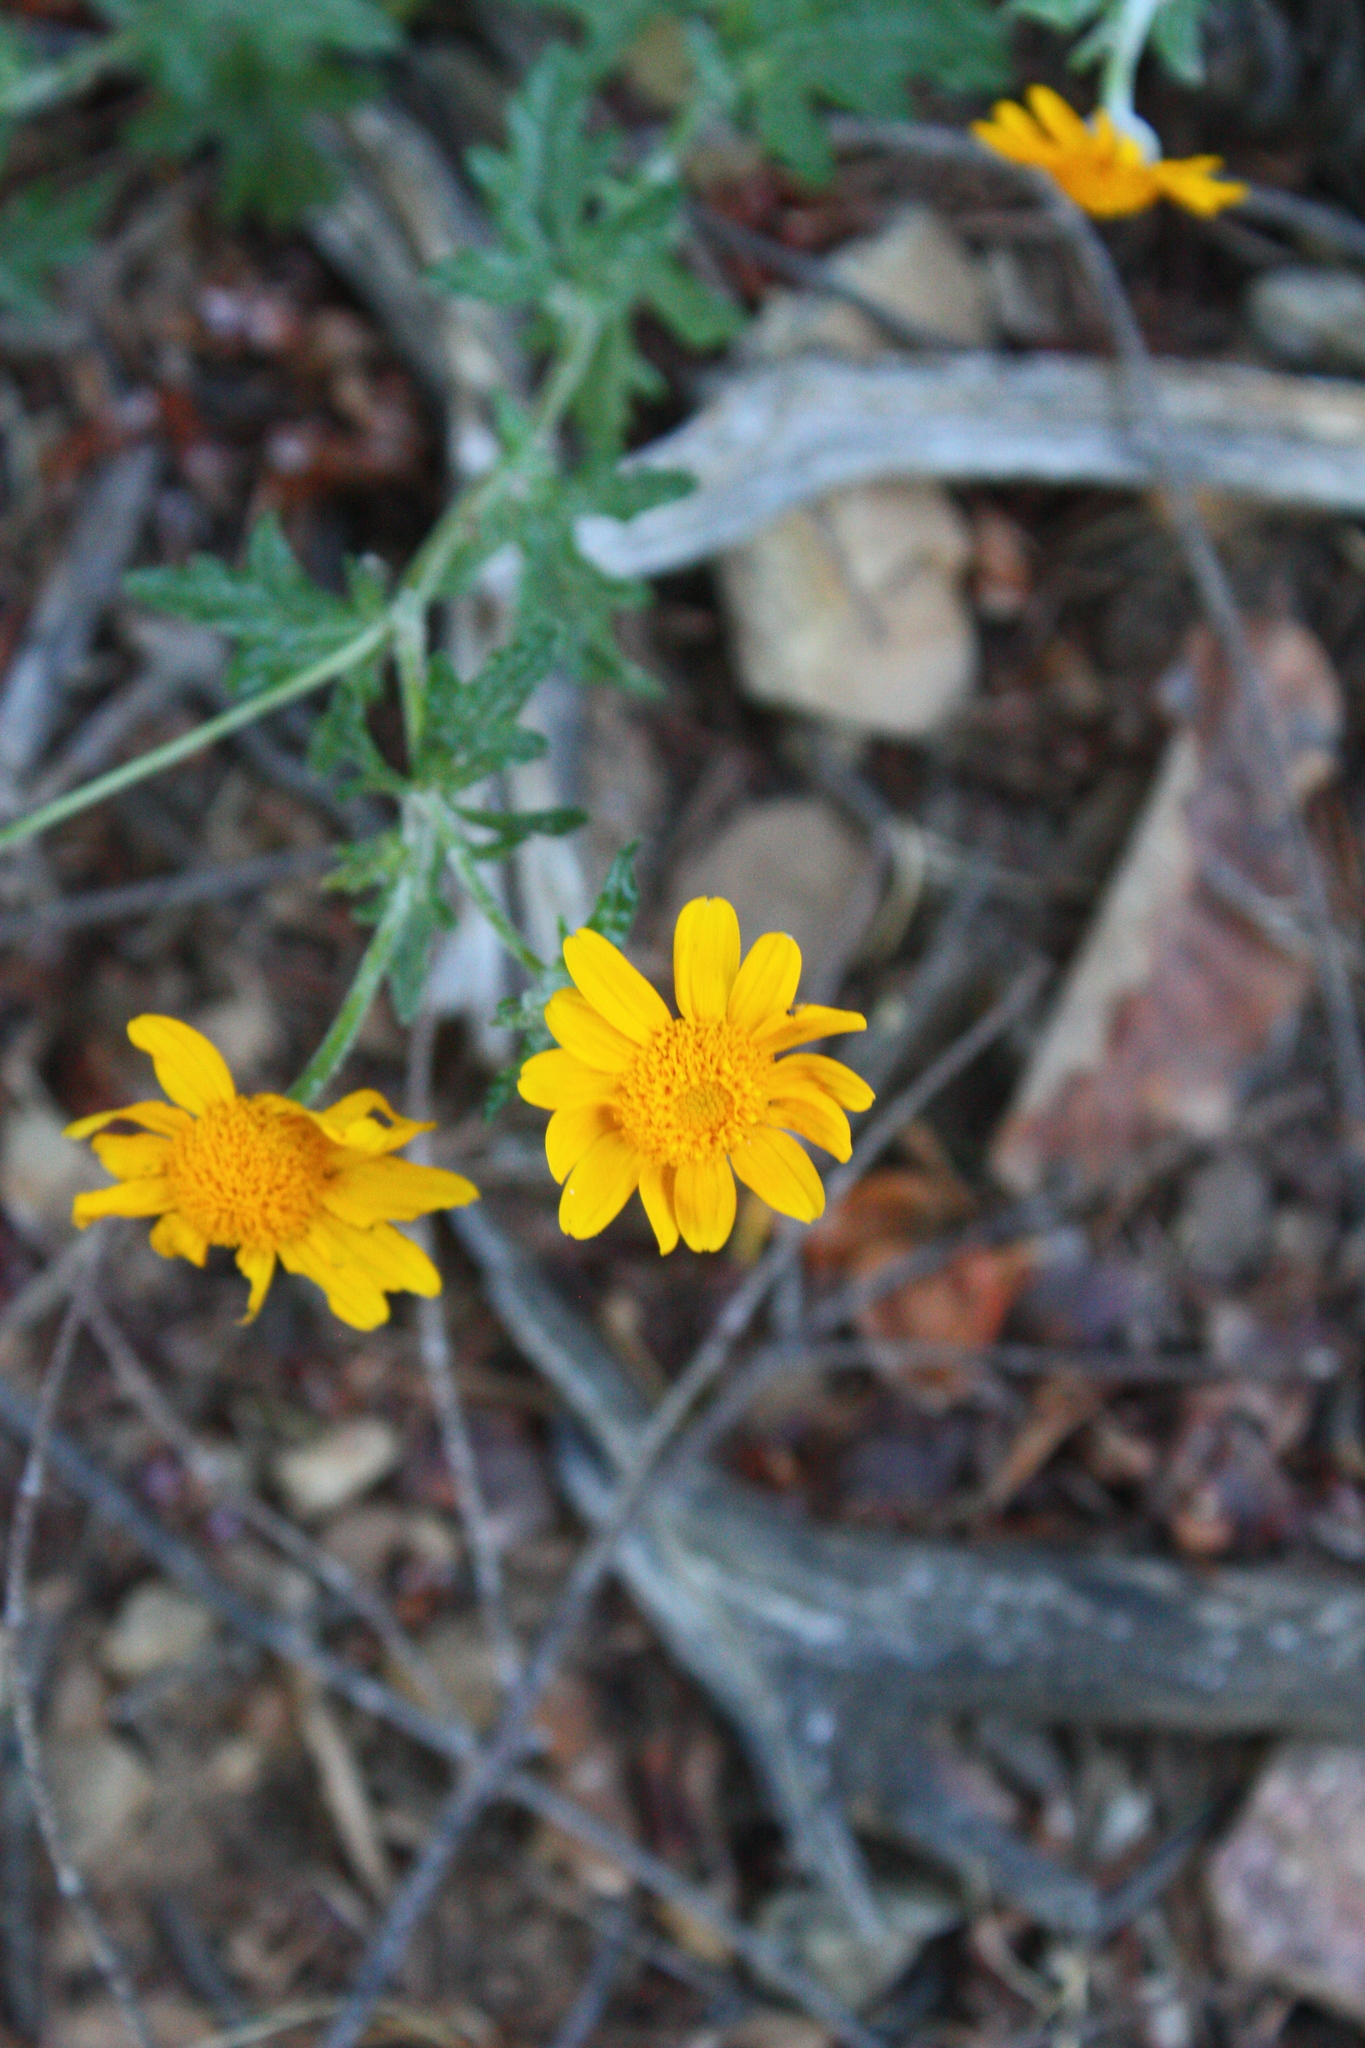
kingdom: Plantae
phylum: Tracheophyta
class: Magnoliopsida
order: Asterales
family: Asteraceae
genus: Eriophyllum
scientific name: Eriophyllum lanatum
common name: Common woolly-sunflower
